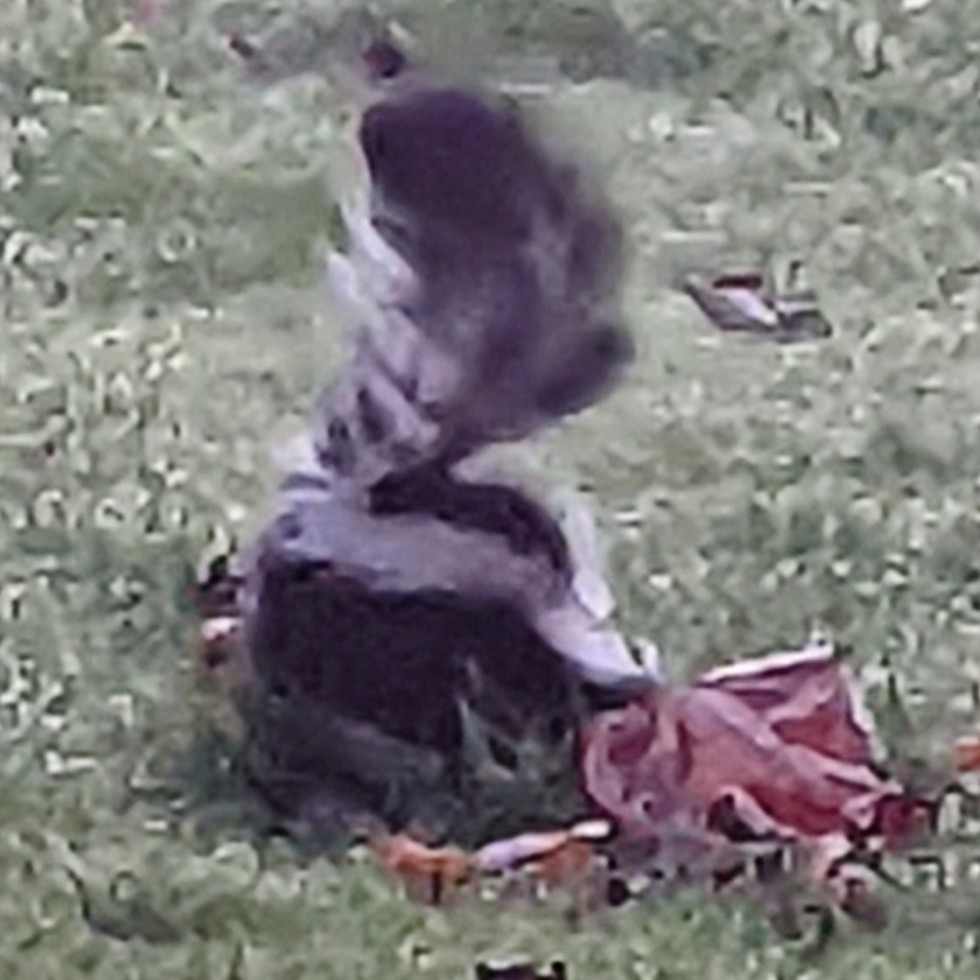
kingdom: Animalia
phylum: Chordata
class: Mammalia
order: Carnivora
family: Mephitidae
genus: Mephitis
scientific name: Mephitis mephitis
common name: Striped skunk
